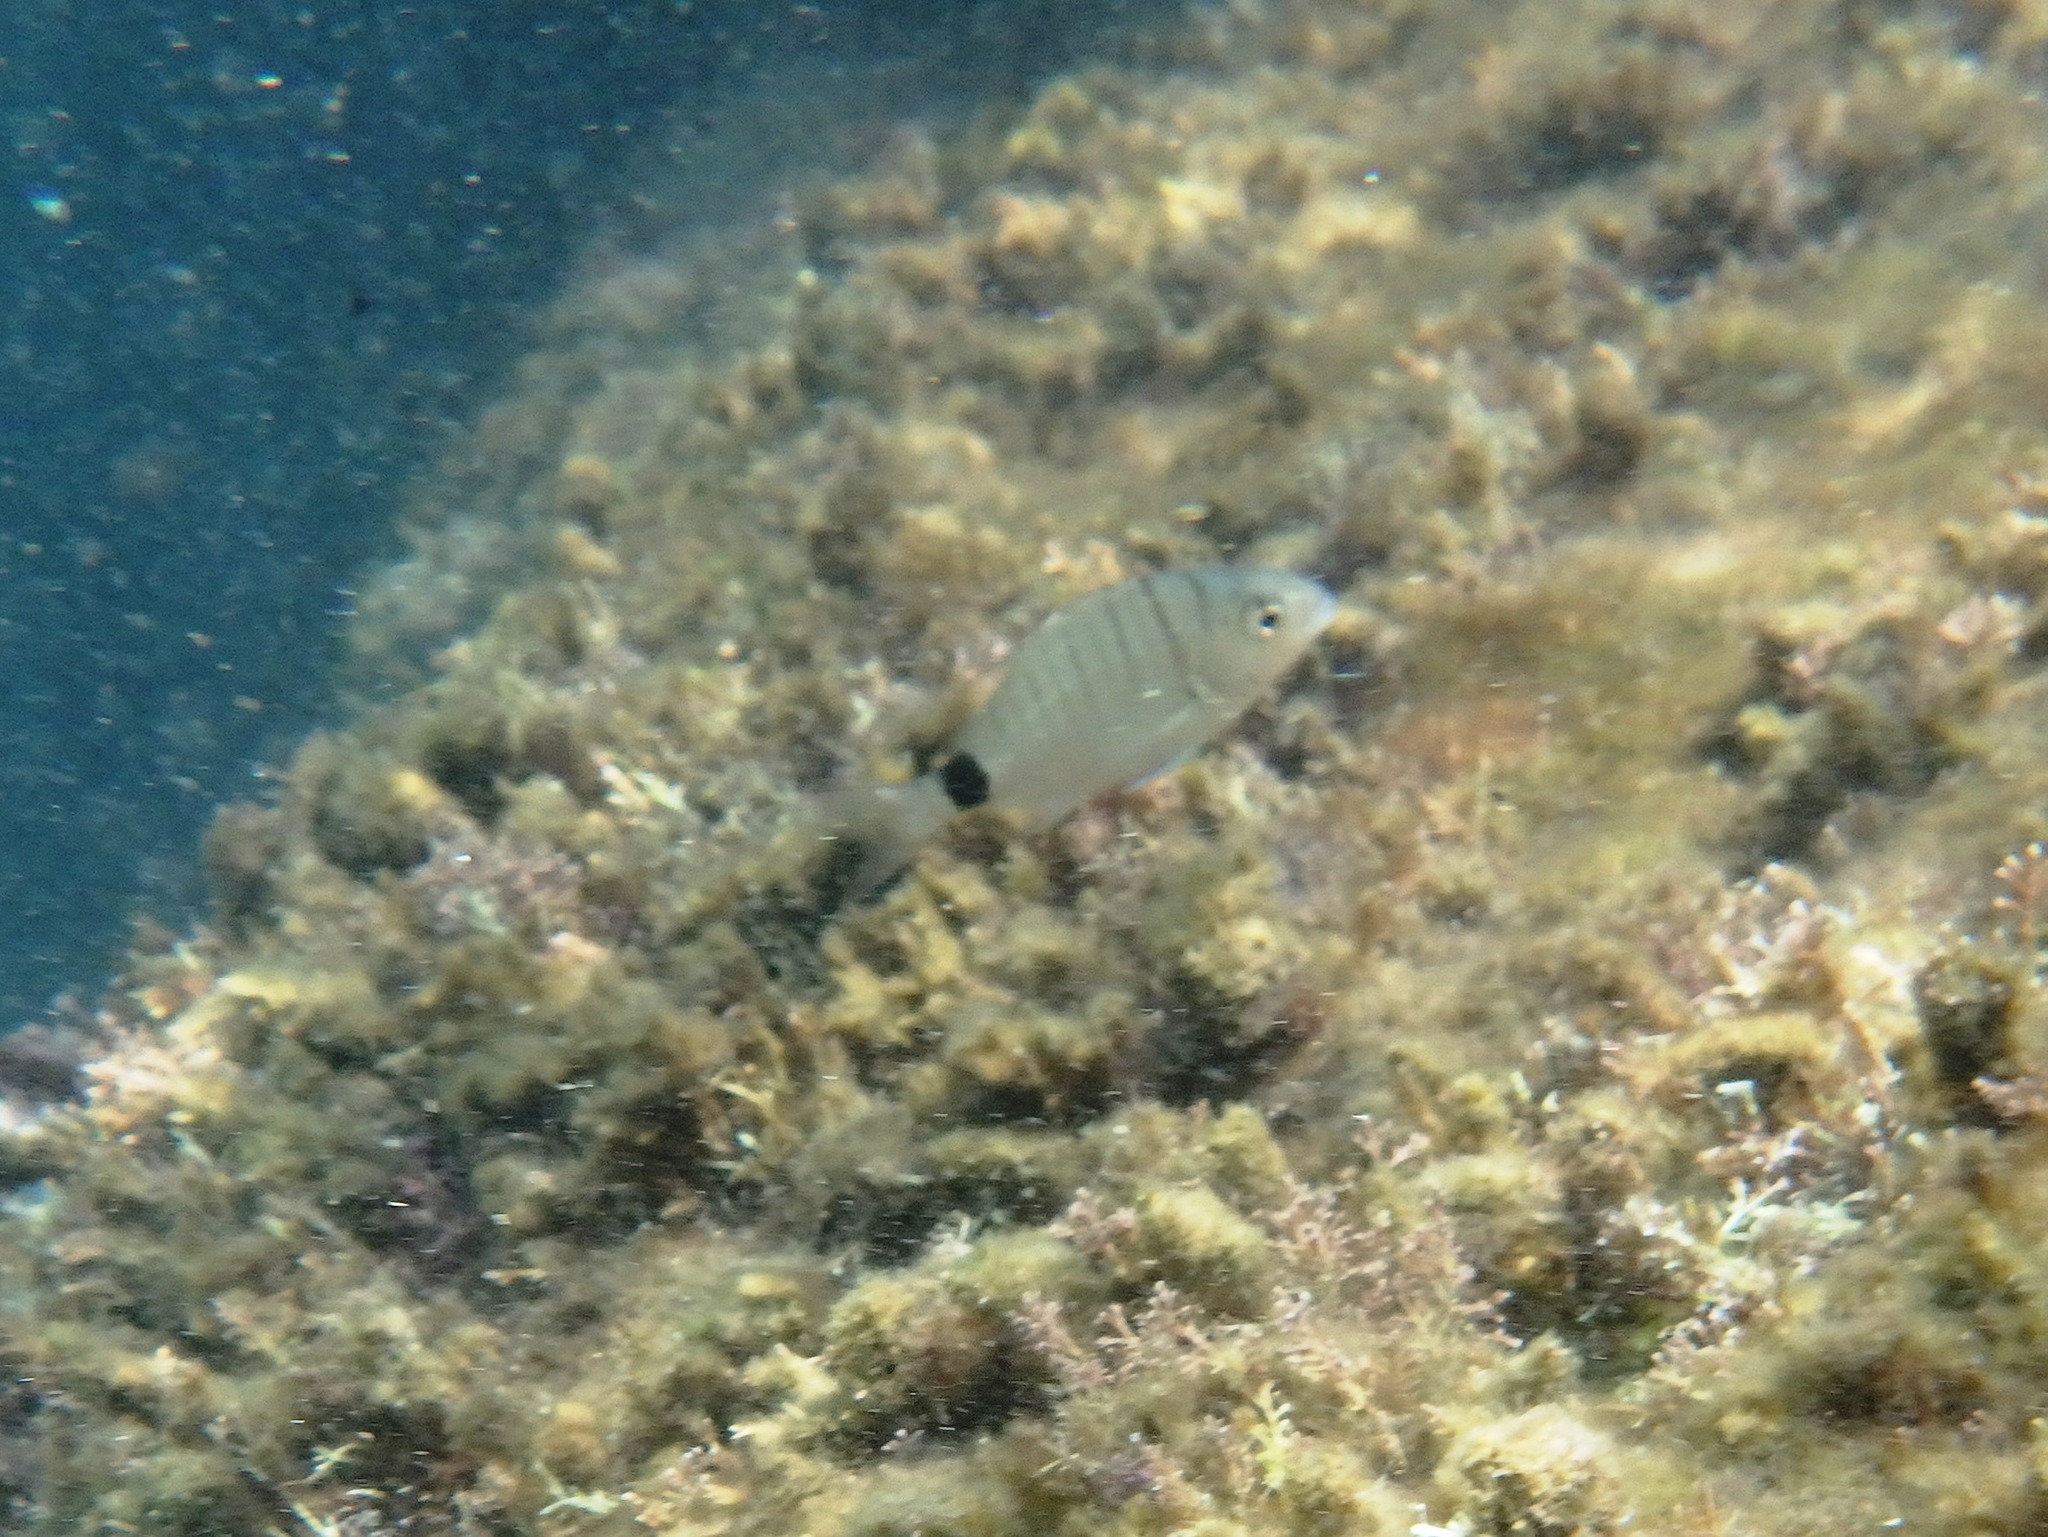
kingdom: Animalia
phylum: Chordata
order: Perciformes
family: Sparidae
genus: Diplodus
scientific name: Diplodus sargus
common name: White seabream
